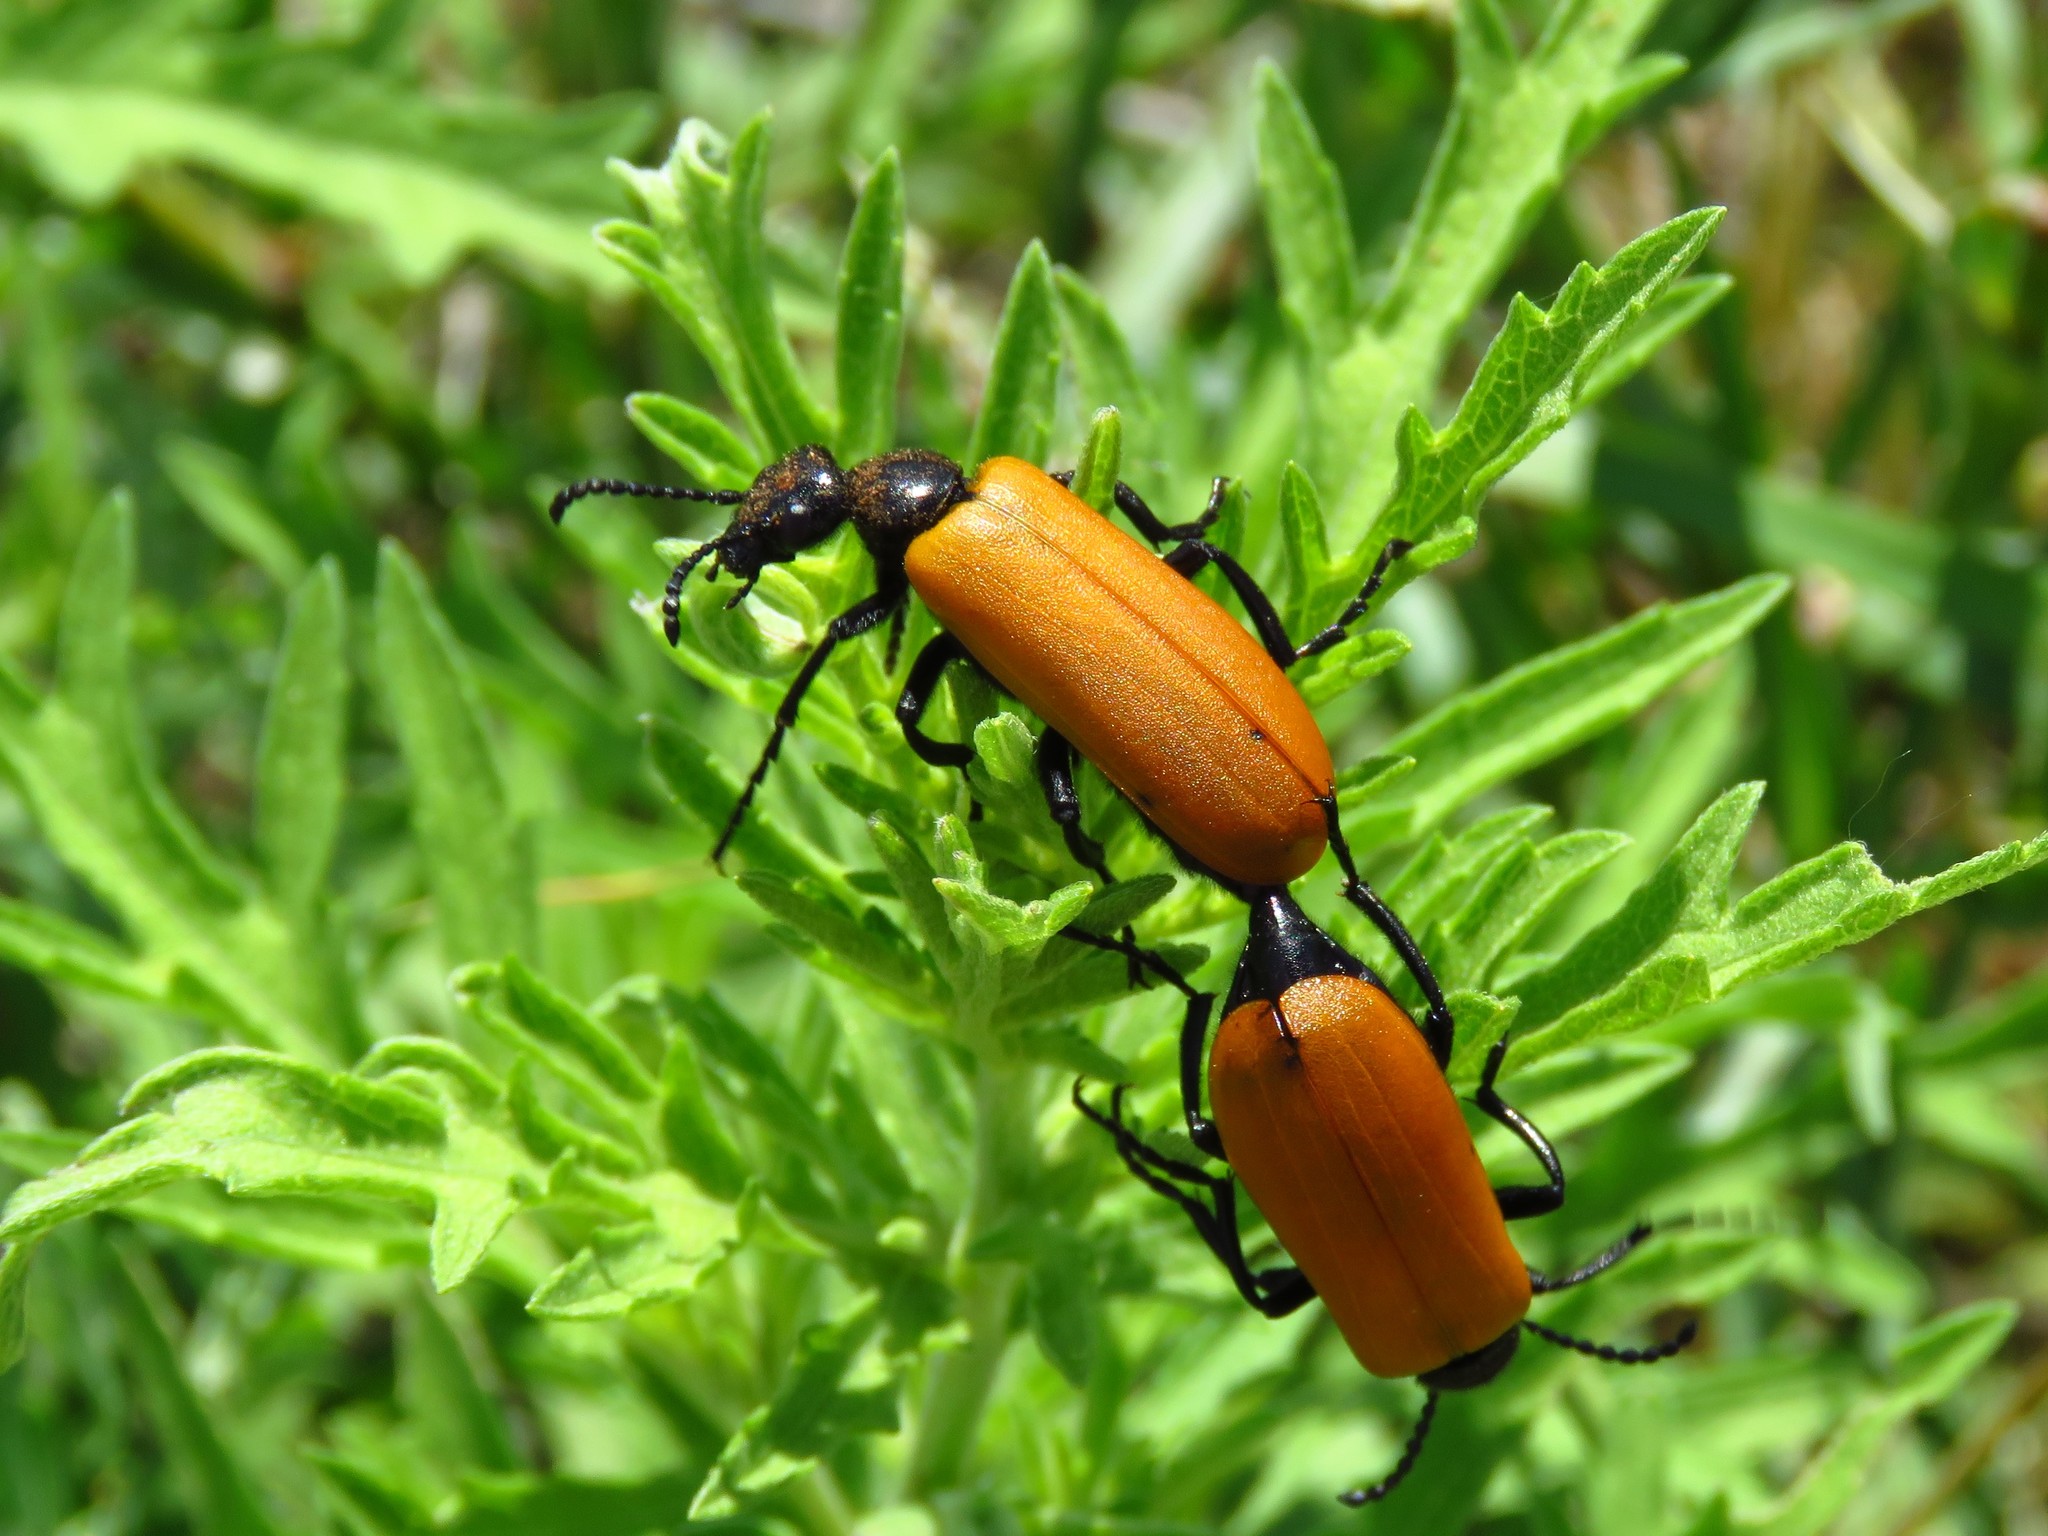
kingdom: Animalia
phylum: Arthropoda
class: Insecta
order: Coleoptera
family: Meloidae
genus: Lytta
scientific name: Lytta fulvipennis
